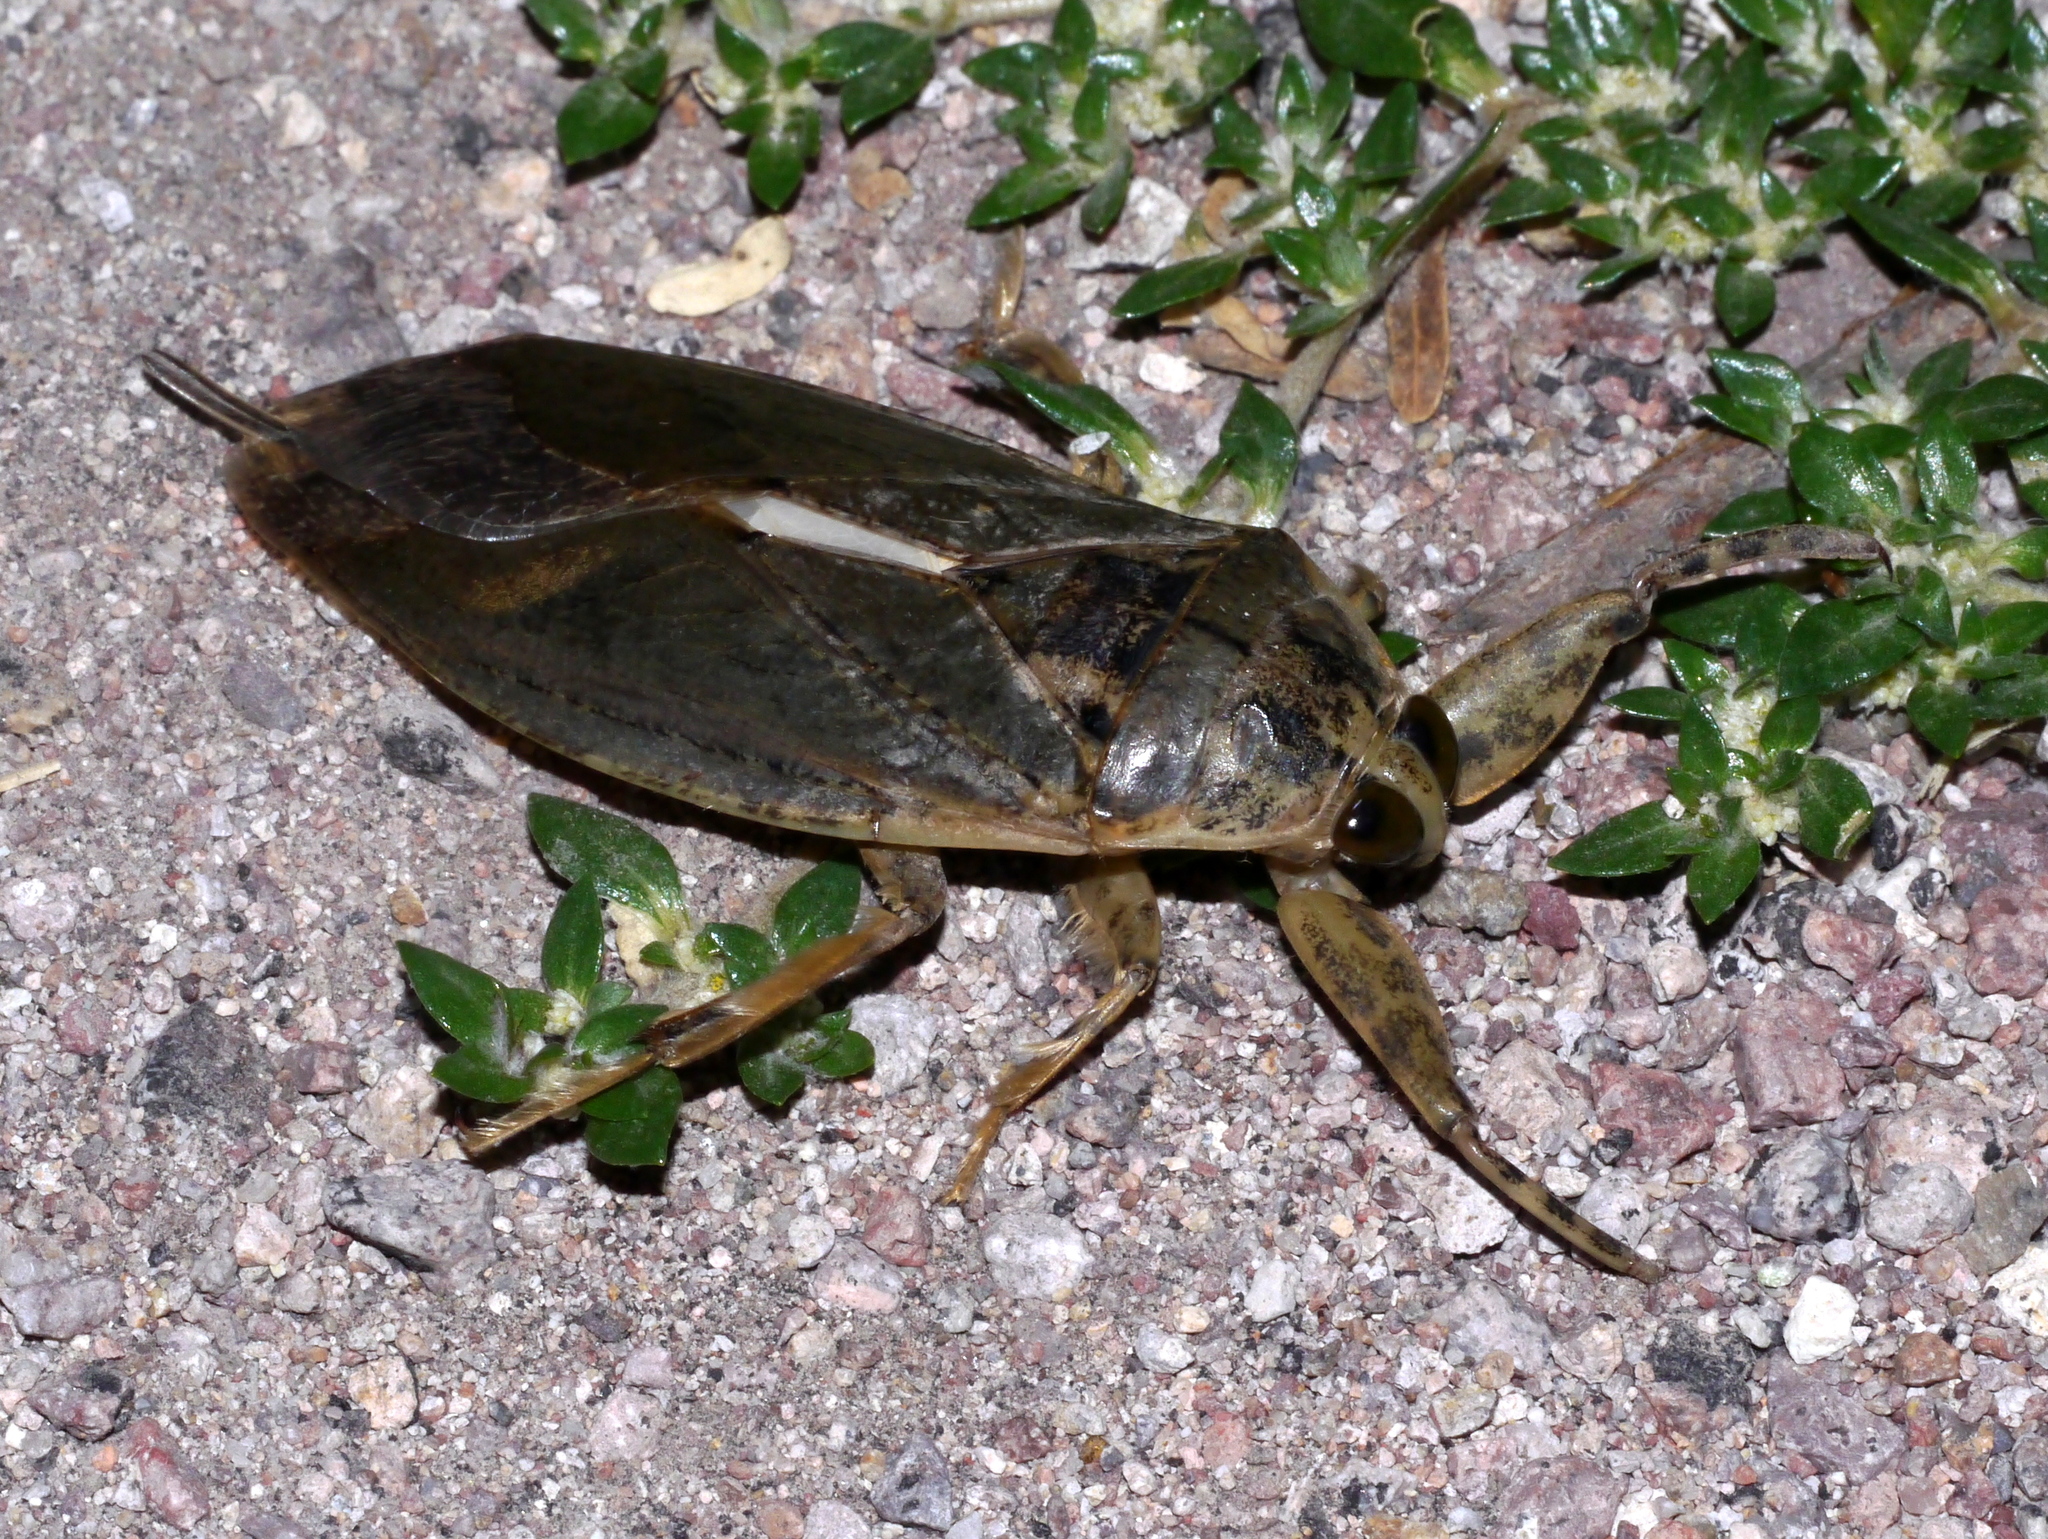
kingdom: Animalia
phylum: Arthropoda
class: Insecta
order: Hemiptera
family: Belostomatidae
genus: Lethocerus
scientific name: Lethocerus medius
